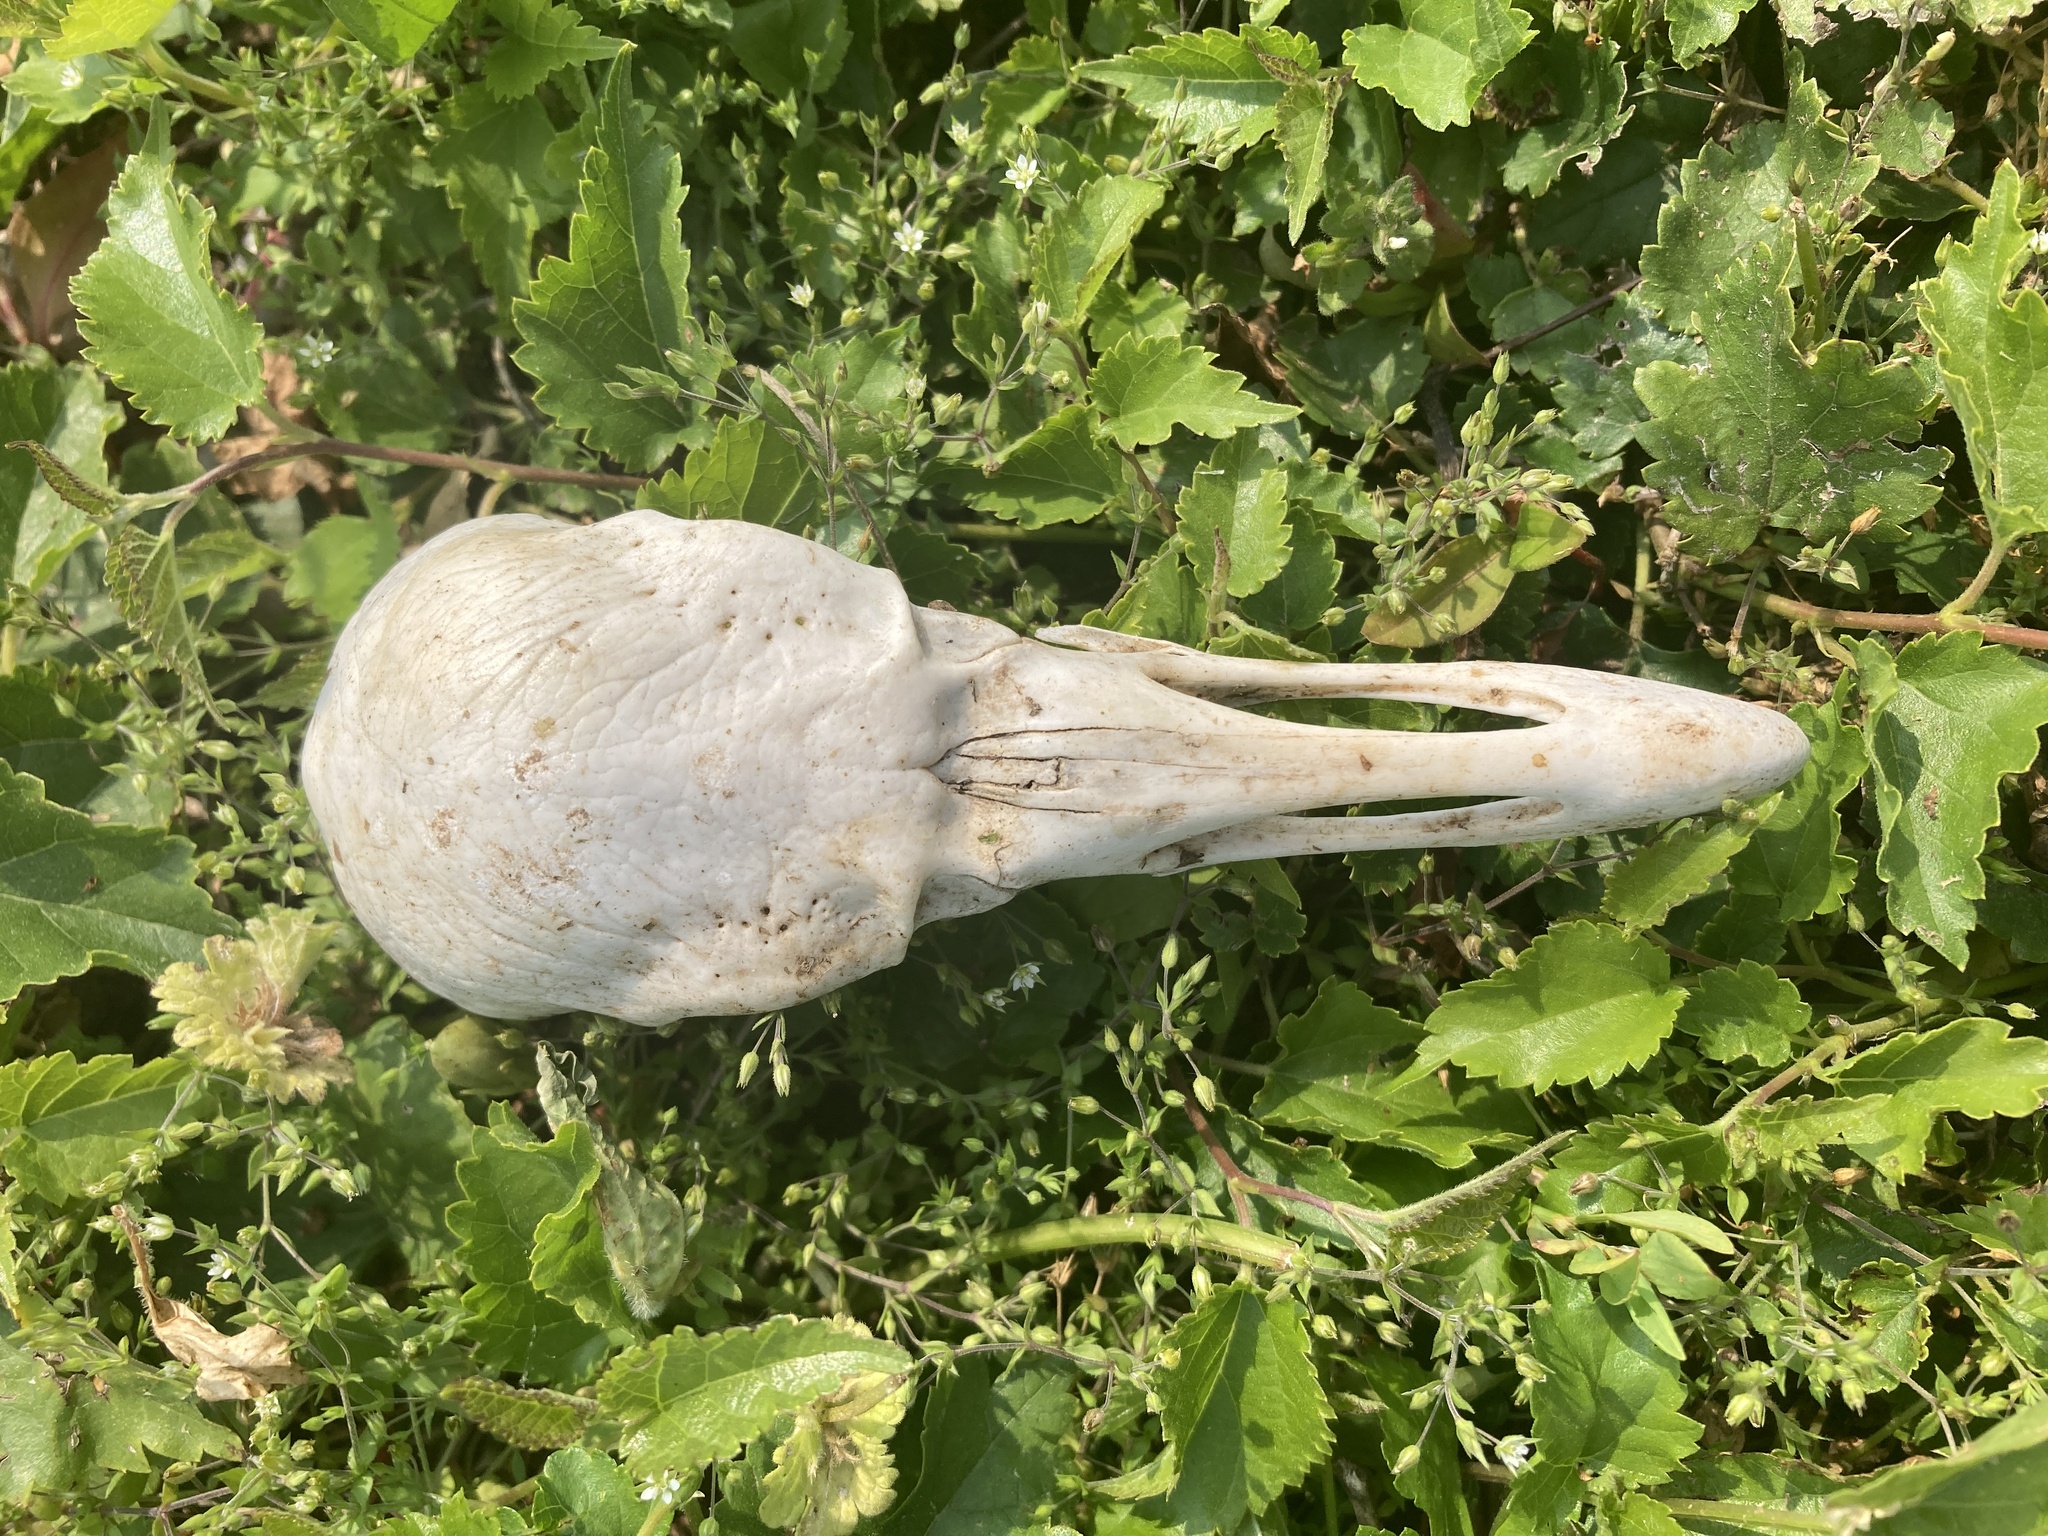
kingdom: Animalia
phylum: Chordata
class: Aves
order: Accipitriformes
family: Cathartidae
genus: Coragyps
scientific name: Coragyps atratus
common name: Black vulture
